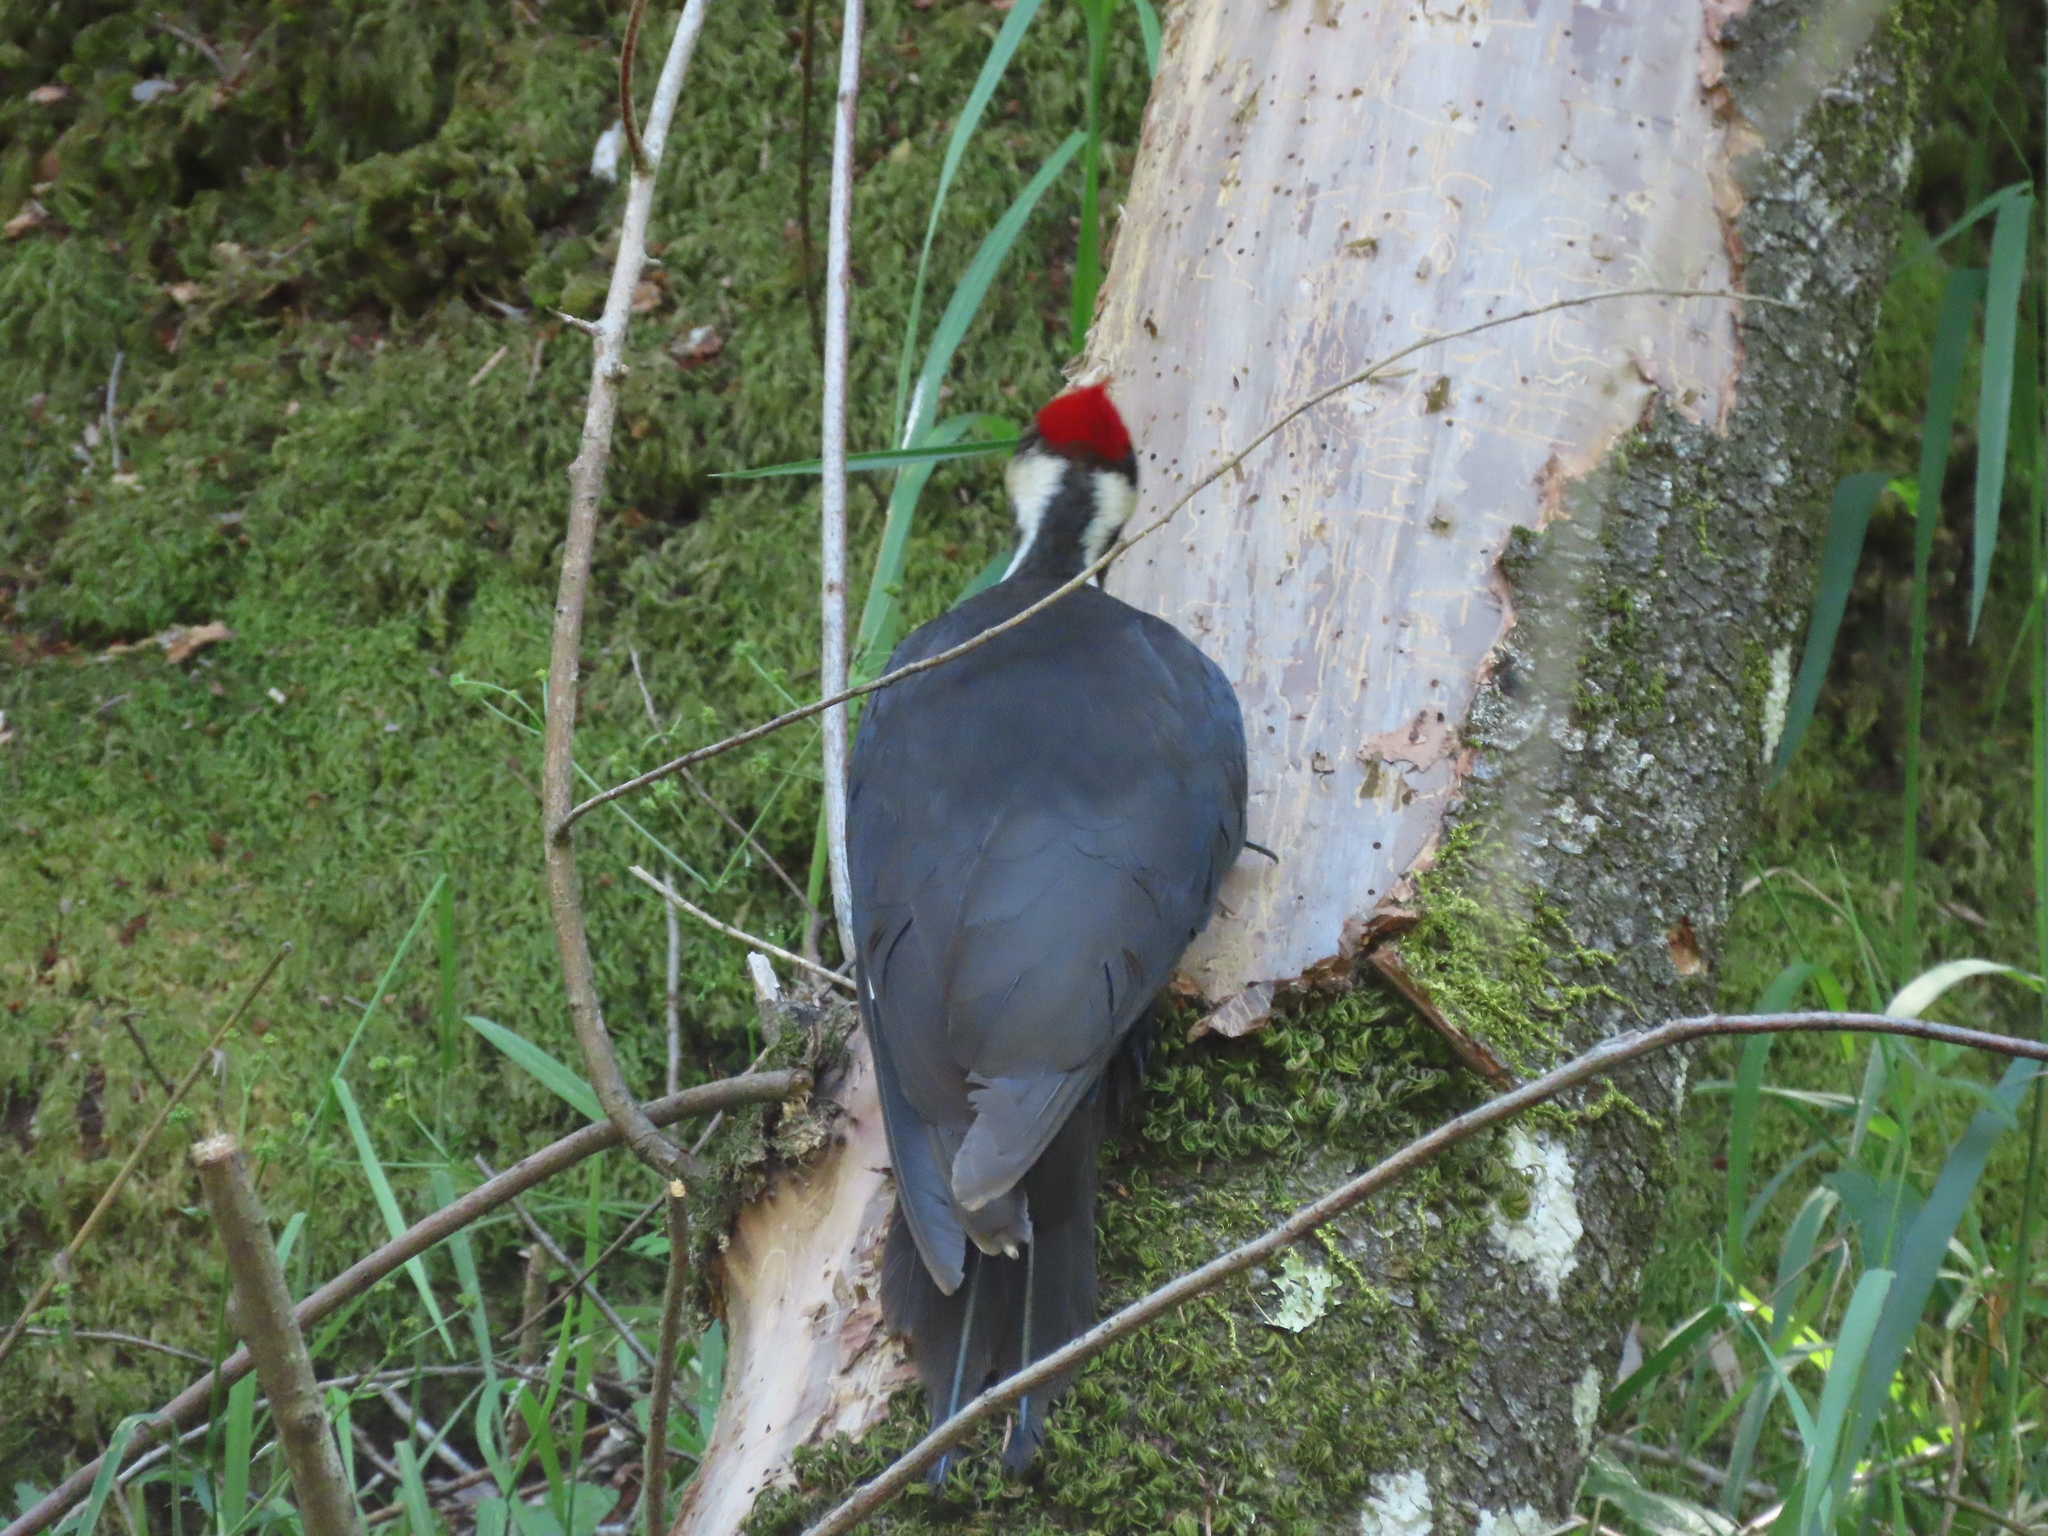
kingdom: Animalia
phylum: Chordata
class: Aves
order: Piciformes
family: Picidae
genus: Dryocopus
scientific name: Dryocopus pileatus
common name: Pileated woodpecker
